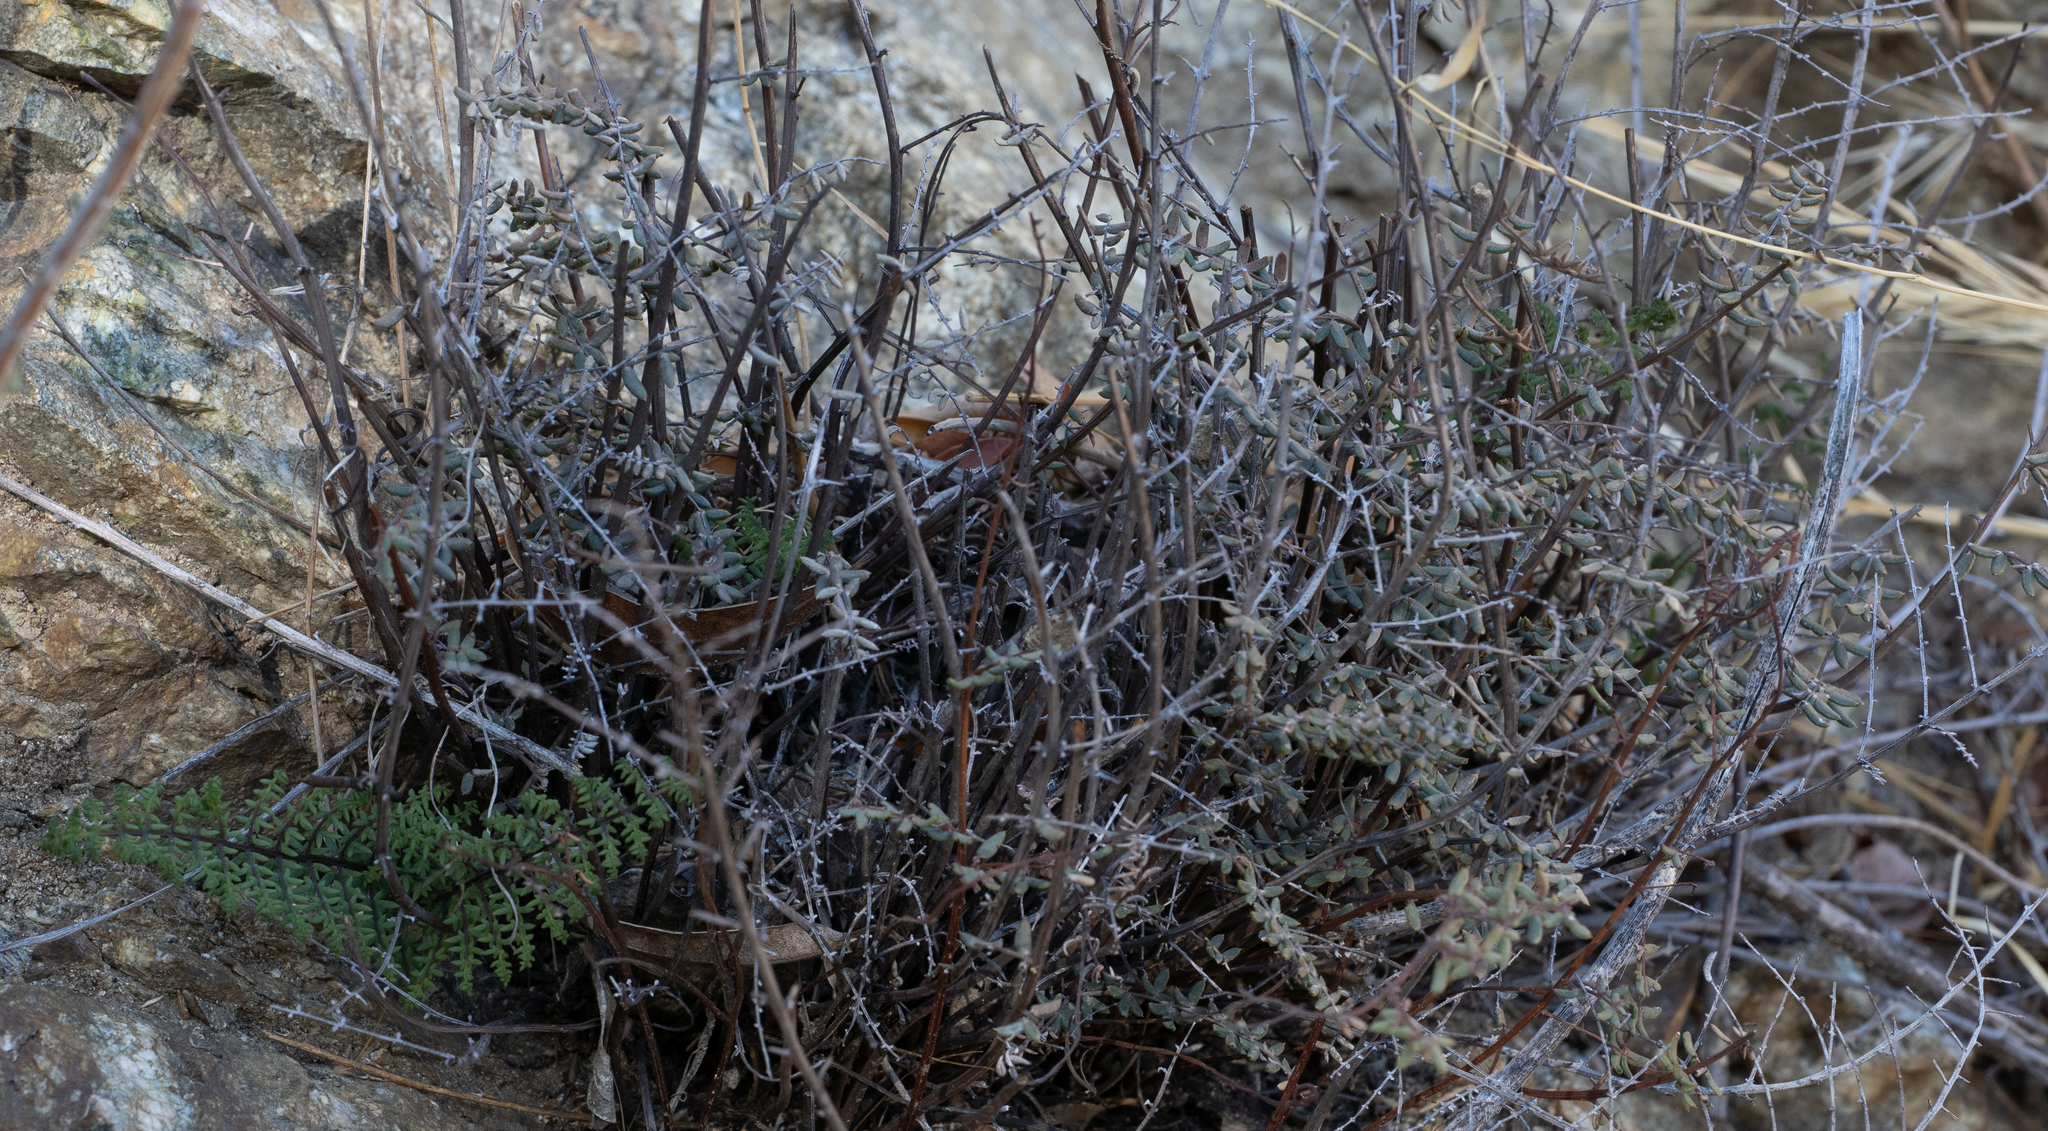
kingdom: Plantae
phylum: Tracheophyta
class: Polypodiopsida
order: Polypodiales
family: Pteridaceae
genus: Pellaea
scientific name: Pellaea mucronata
